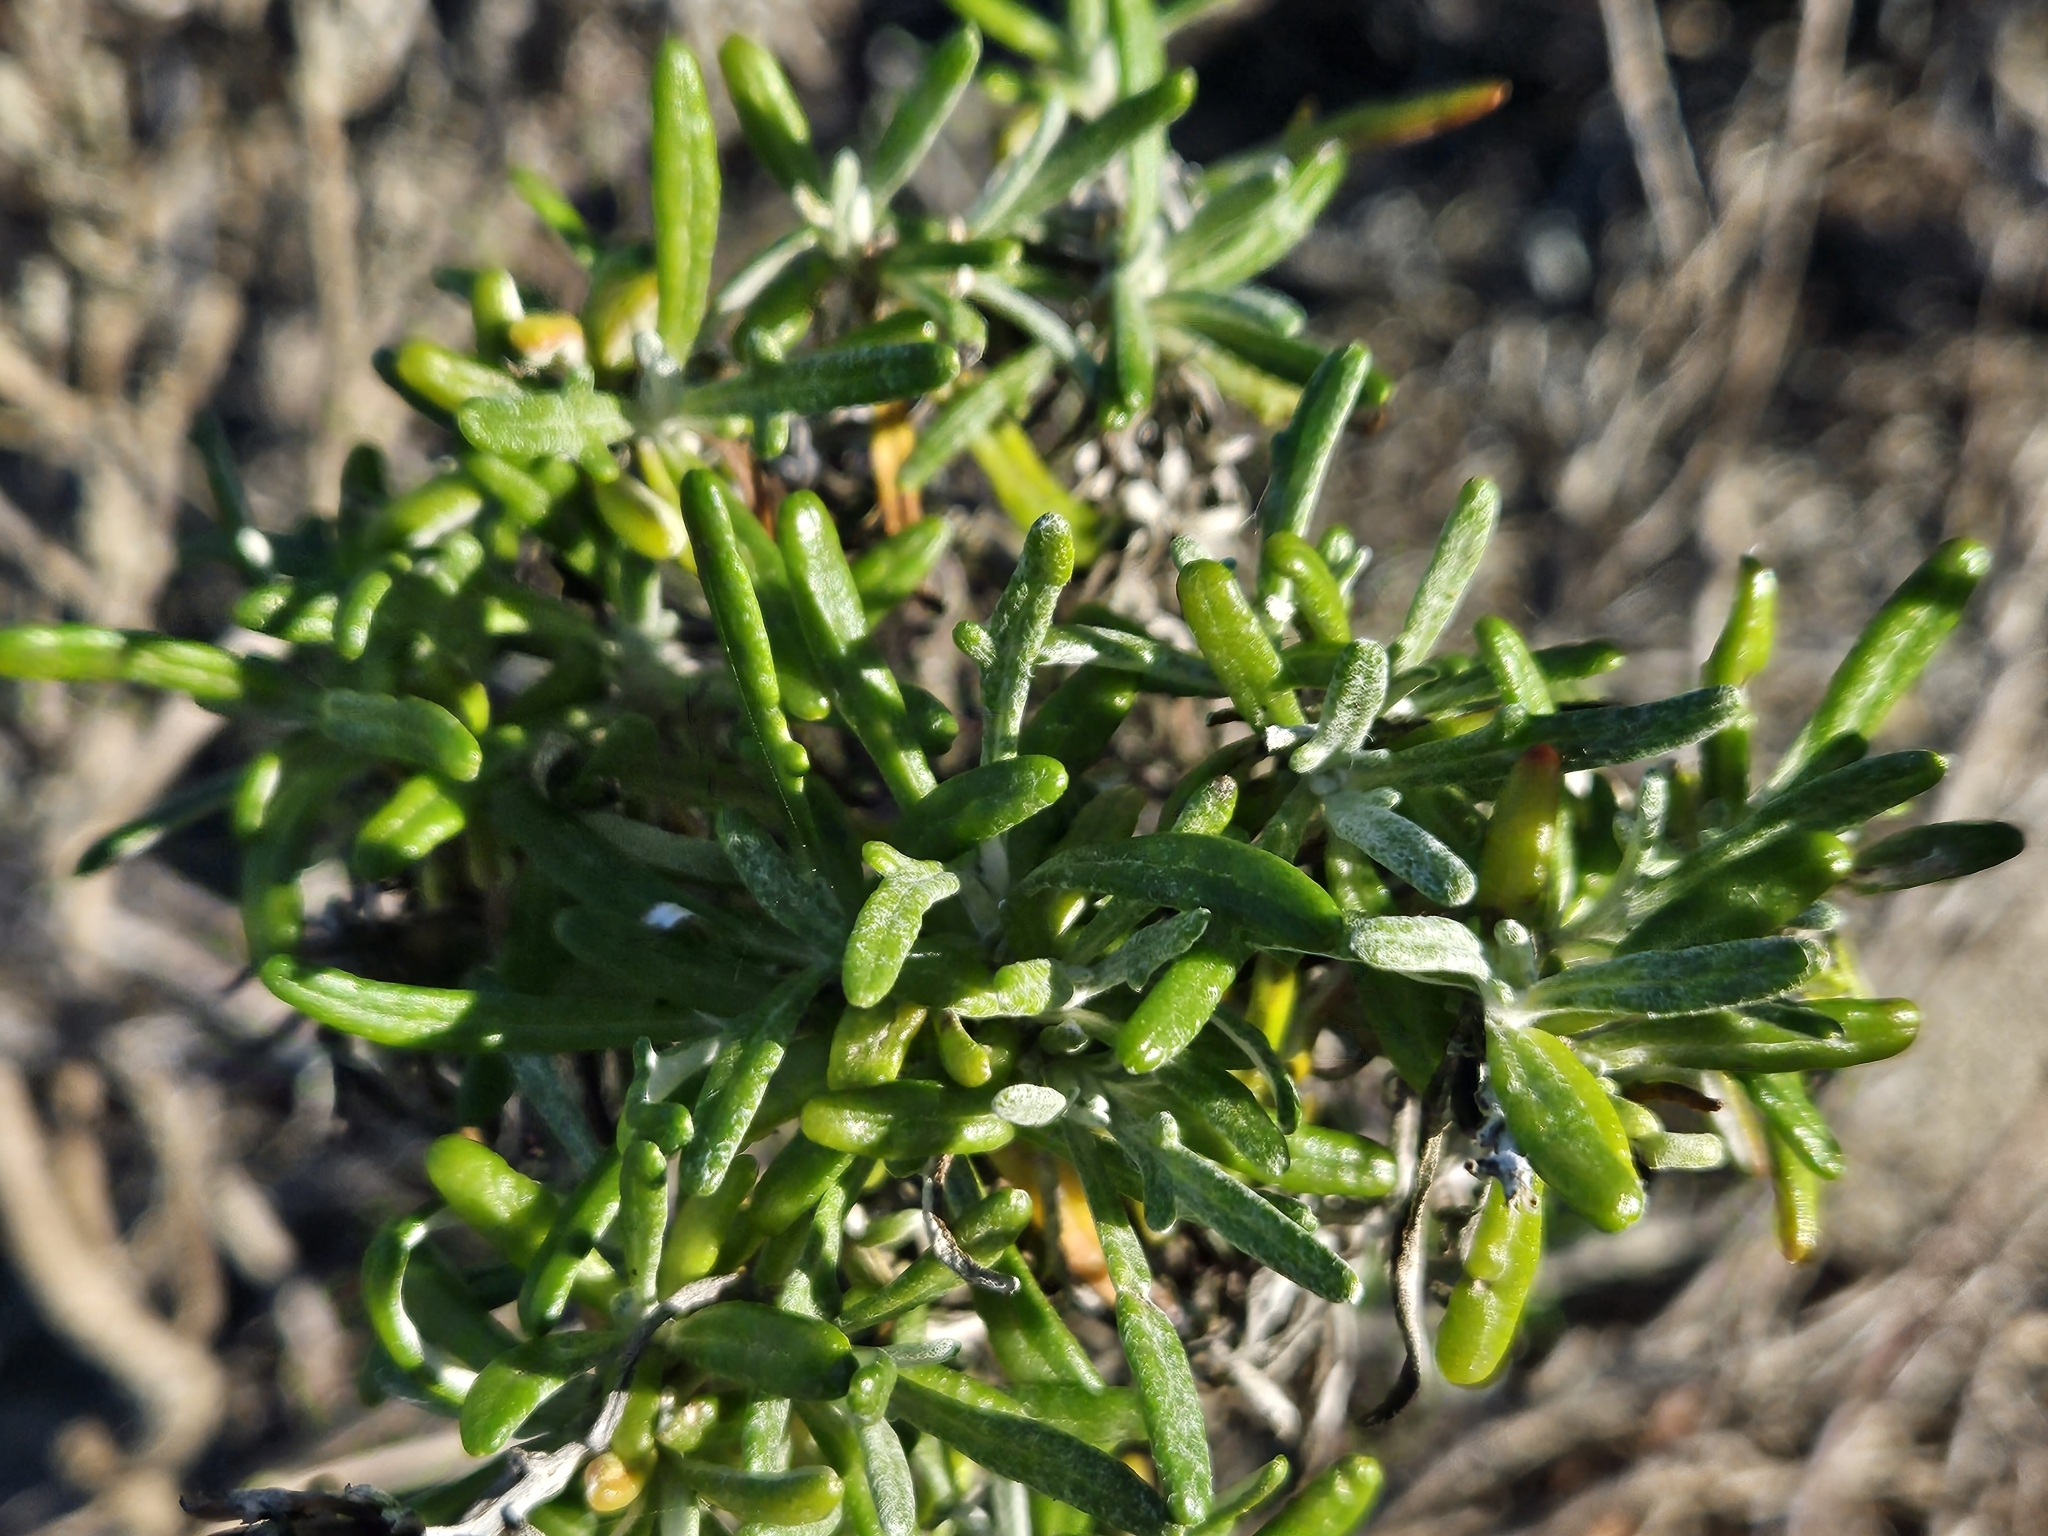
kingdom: Plantae
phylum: Tracheophyta
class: Magnoliopsida
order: Asterales
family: Asteraceae
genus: Eriophyllum
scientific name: Eriophyllum confertiflorum
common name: Golden-yarrow
